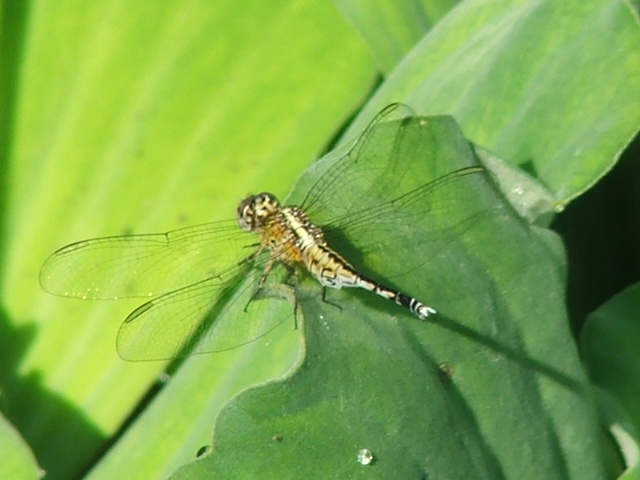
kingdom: Animalia
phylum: Arthropoda
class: Insecta
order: Odonata
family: Libellulidae
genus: Acisoma
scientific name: Acisoma inflatum
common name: Stout pintail
